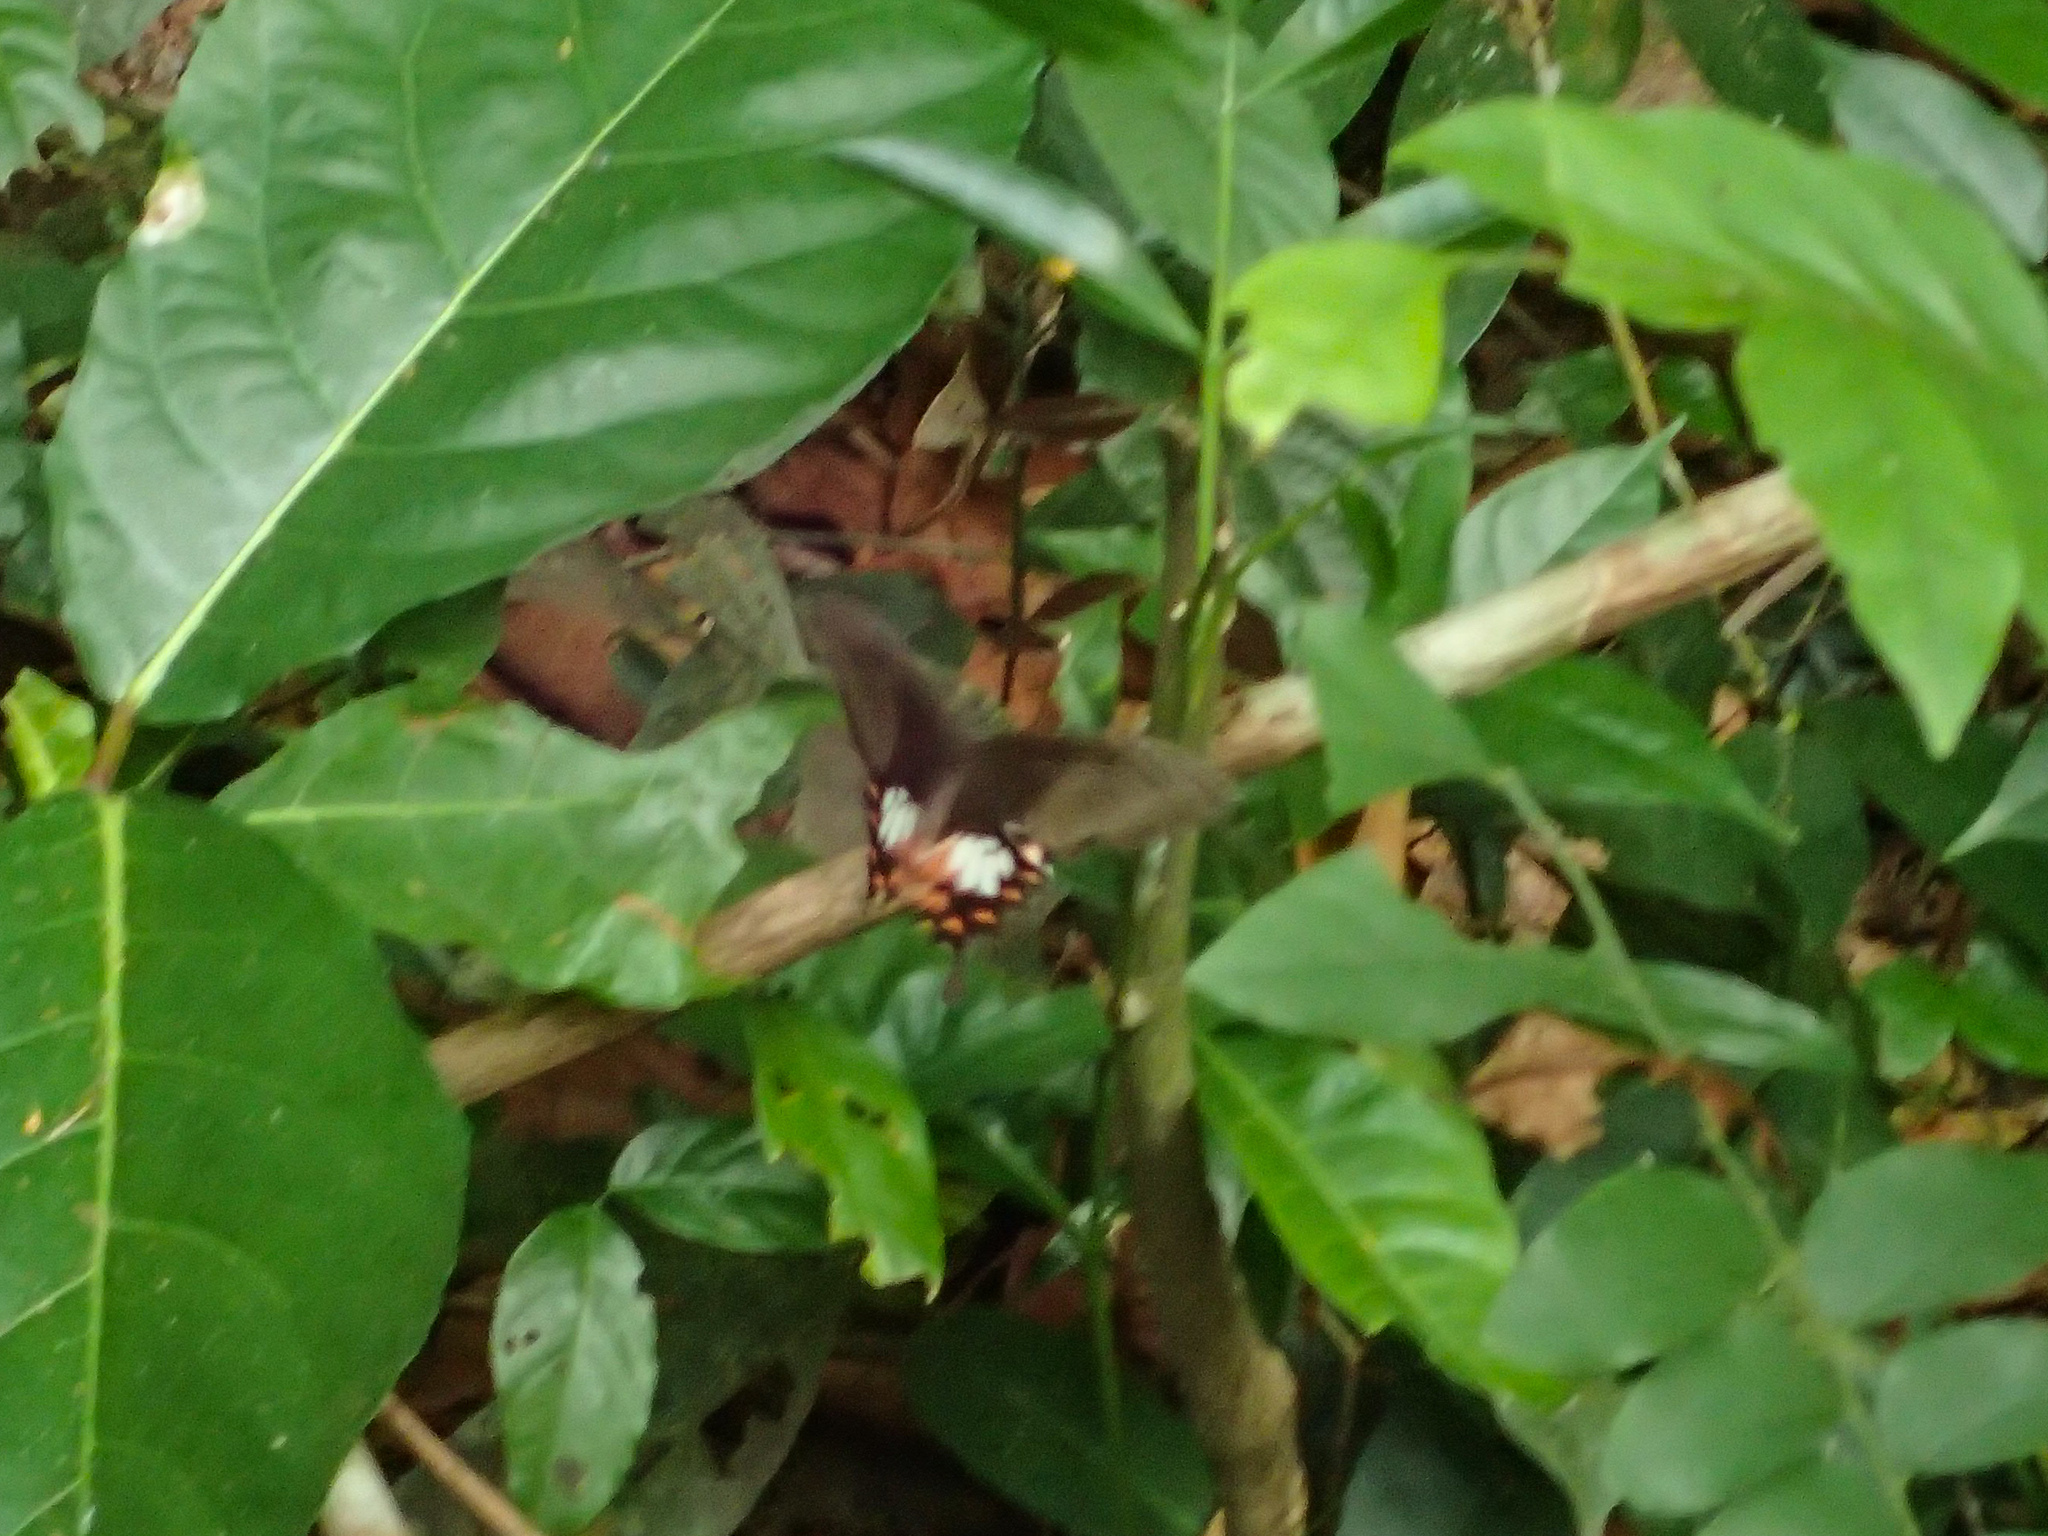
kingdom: Animalia
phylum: Arthropoda
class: Insecta
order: Lepidoptera
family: Papilionidae
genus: Papilio
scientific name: Papilio polytes
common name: Common mormon
